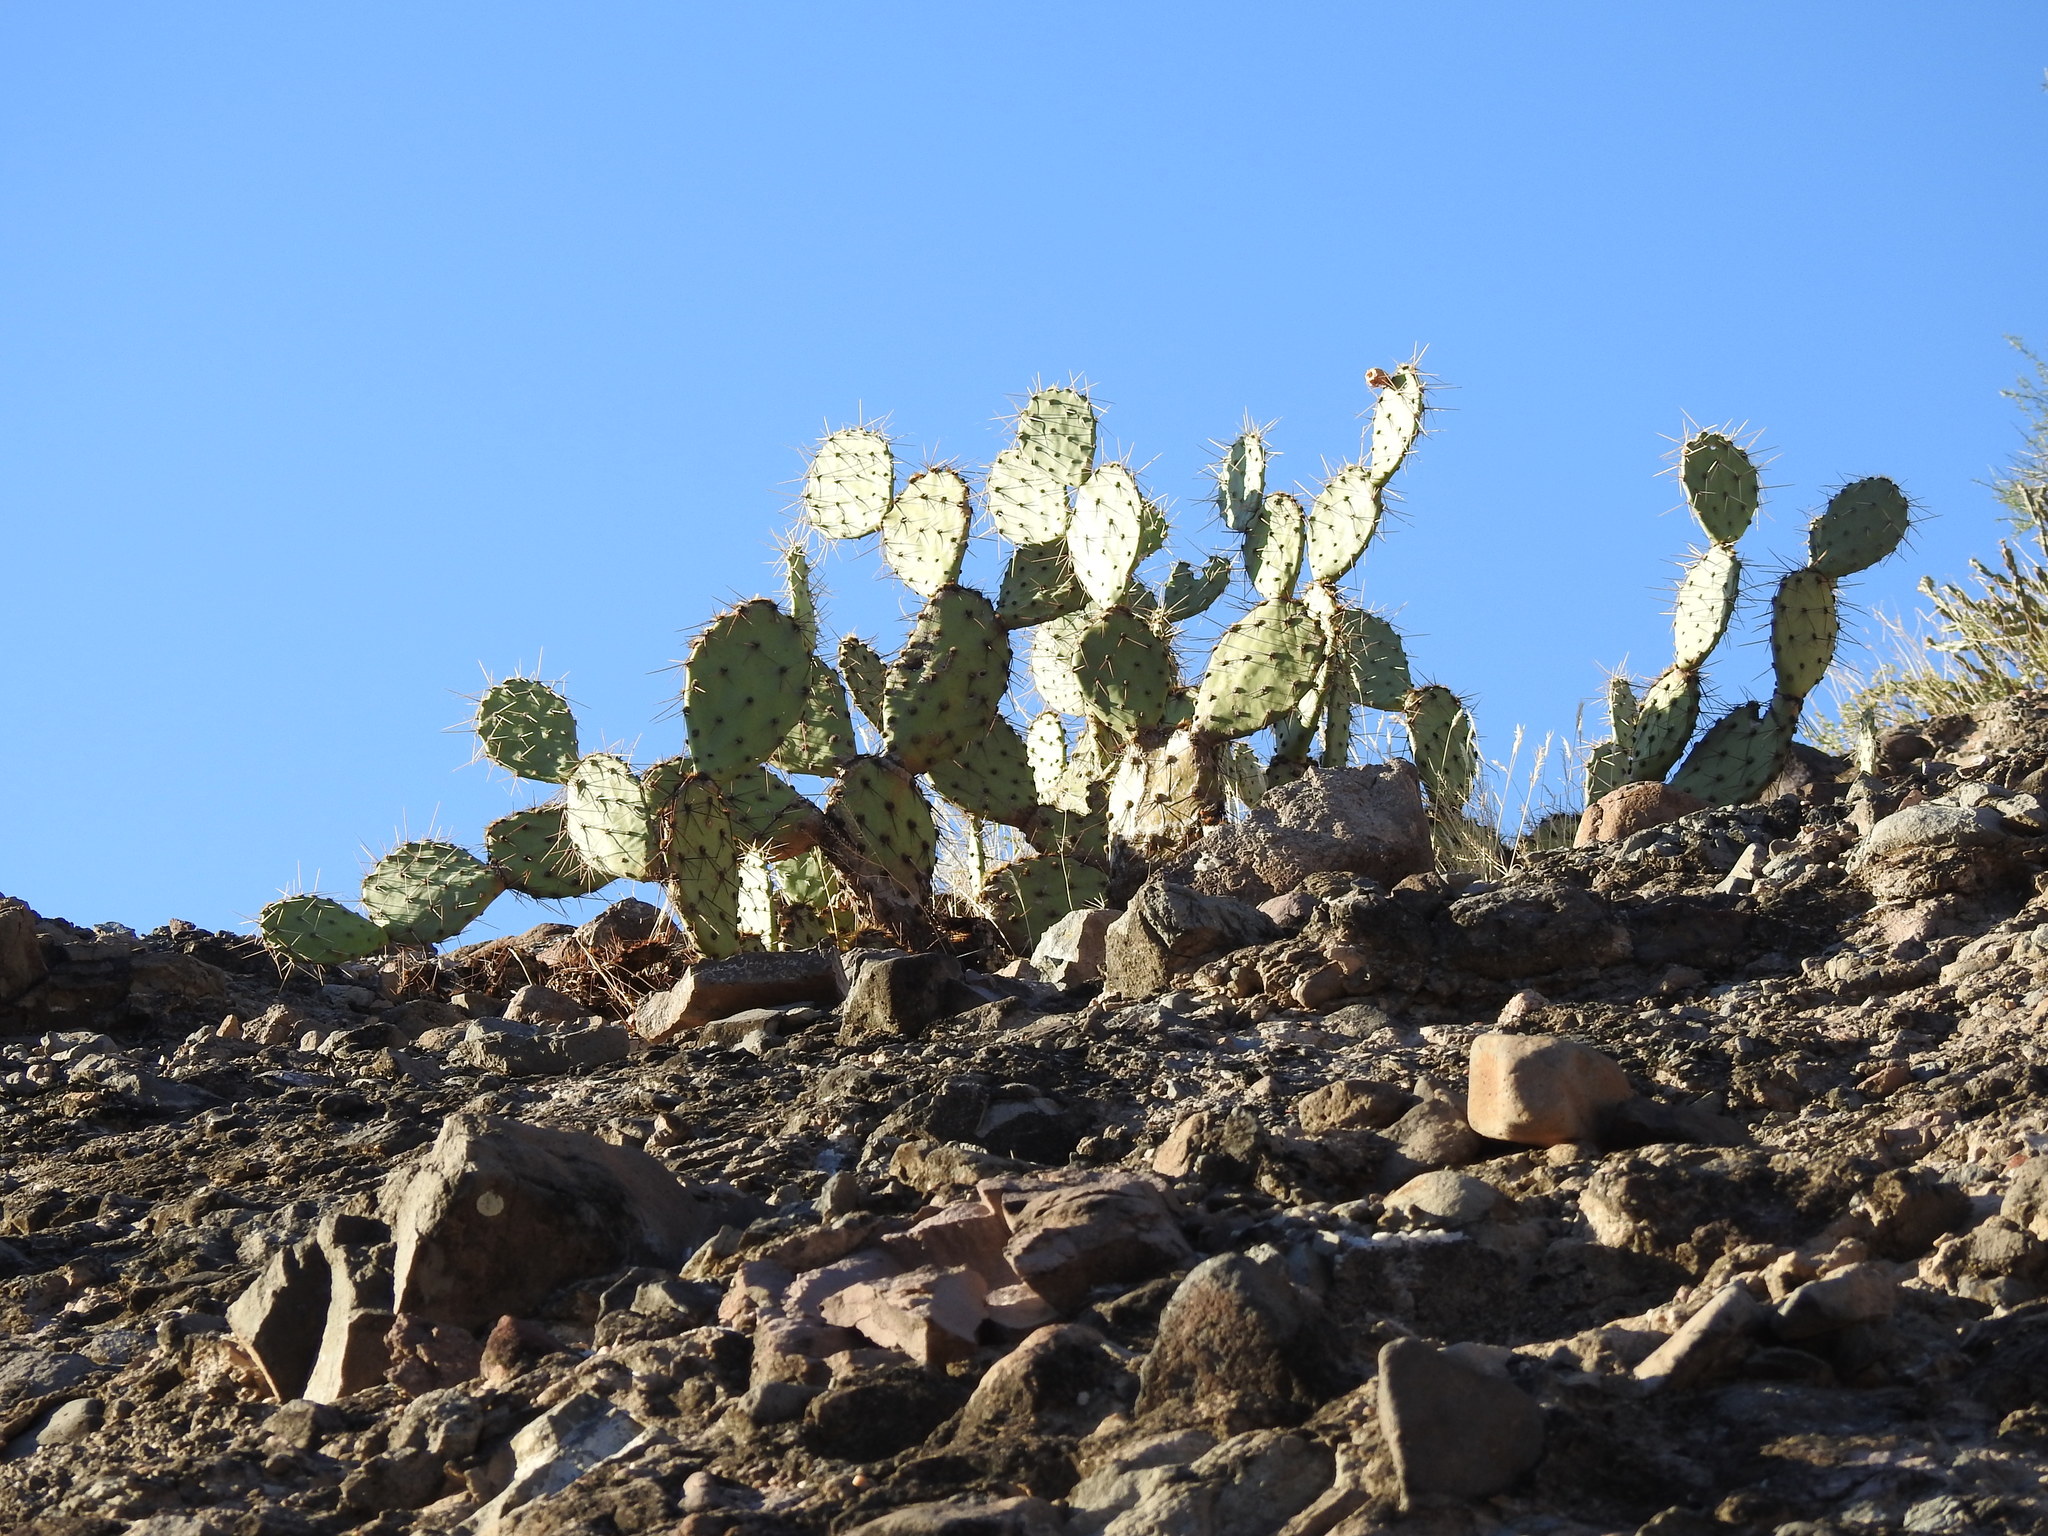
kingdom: Plantae
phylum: Tracheophyta
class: Magnoliopsida
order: Caryophyllales
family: Cactaceae
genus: Opuntia
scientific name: Opuntia engelmannii
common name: Cactus-apple
